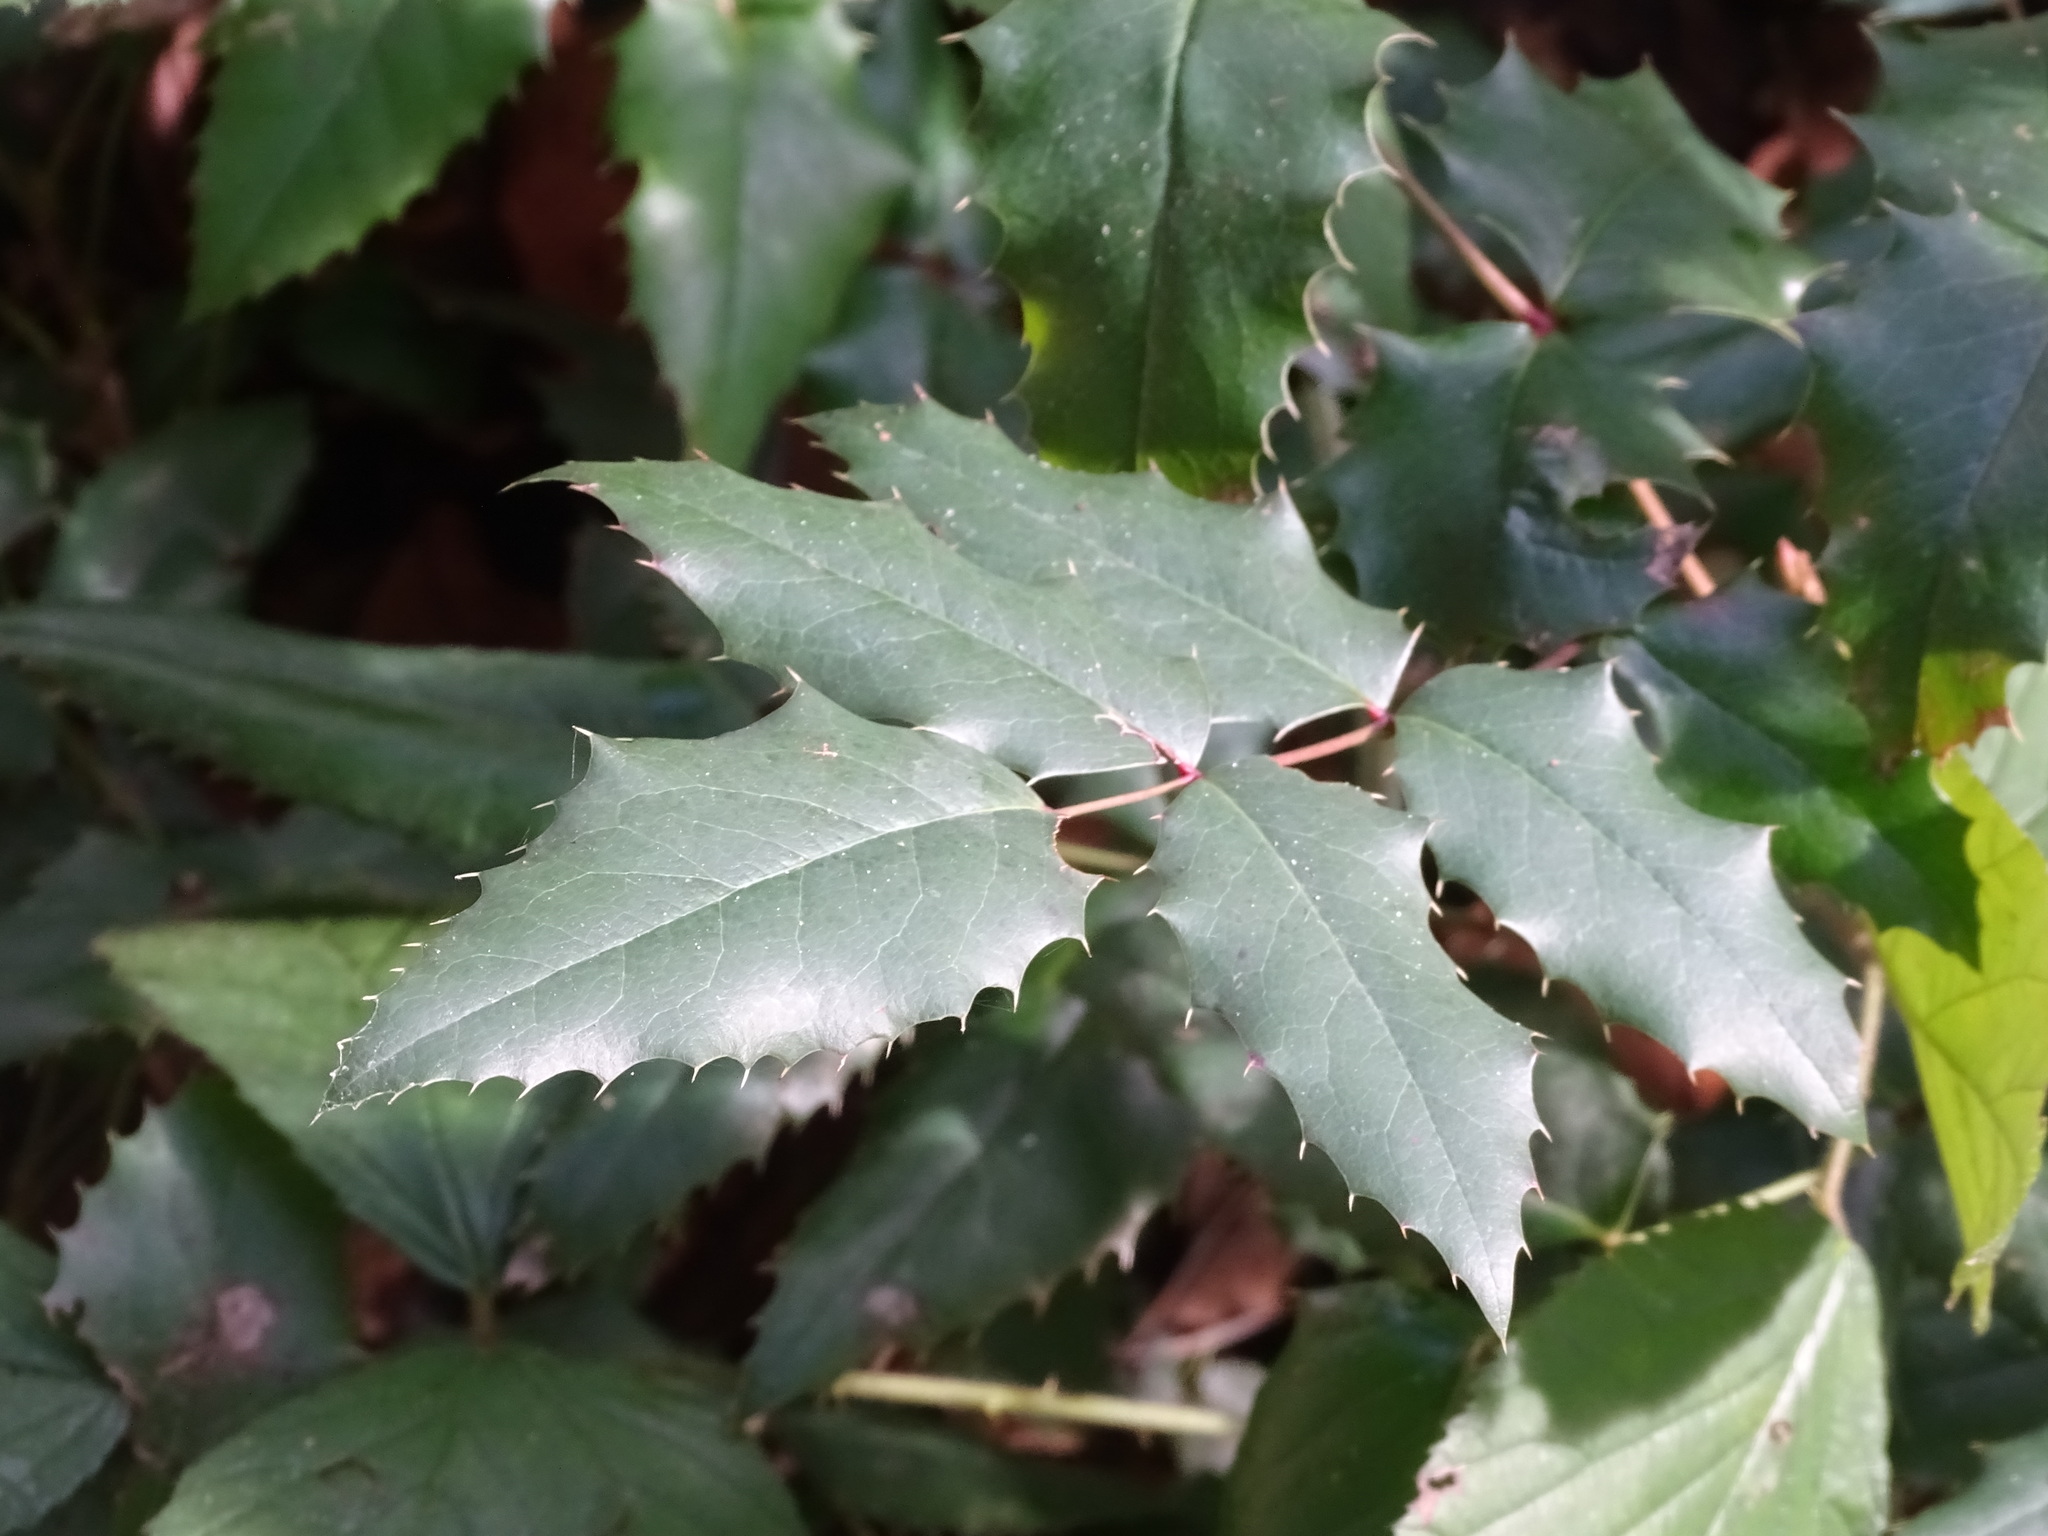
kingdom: Plantae
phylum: Tracheophyta
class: Magnoliopsida
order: Ranunculales
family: Berberidaceae
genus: Mahonia
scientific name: Mahonia aquifolium
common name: Oregon-grape
